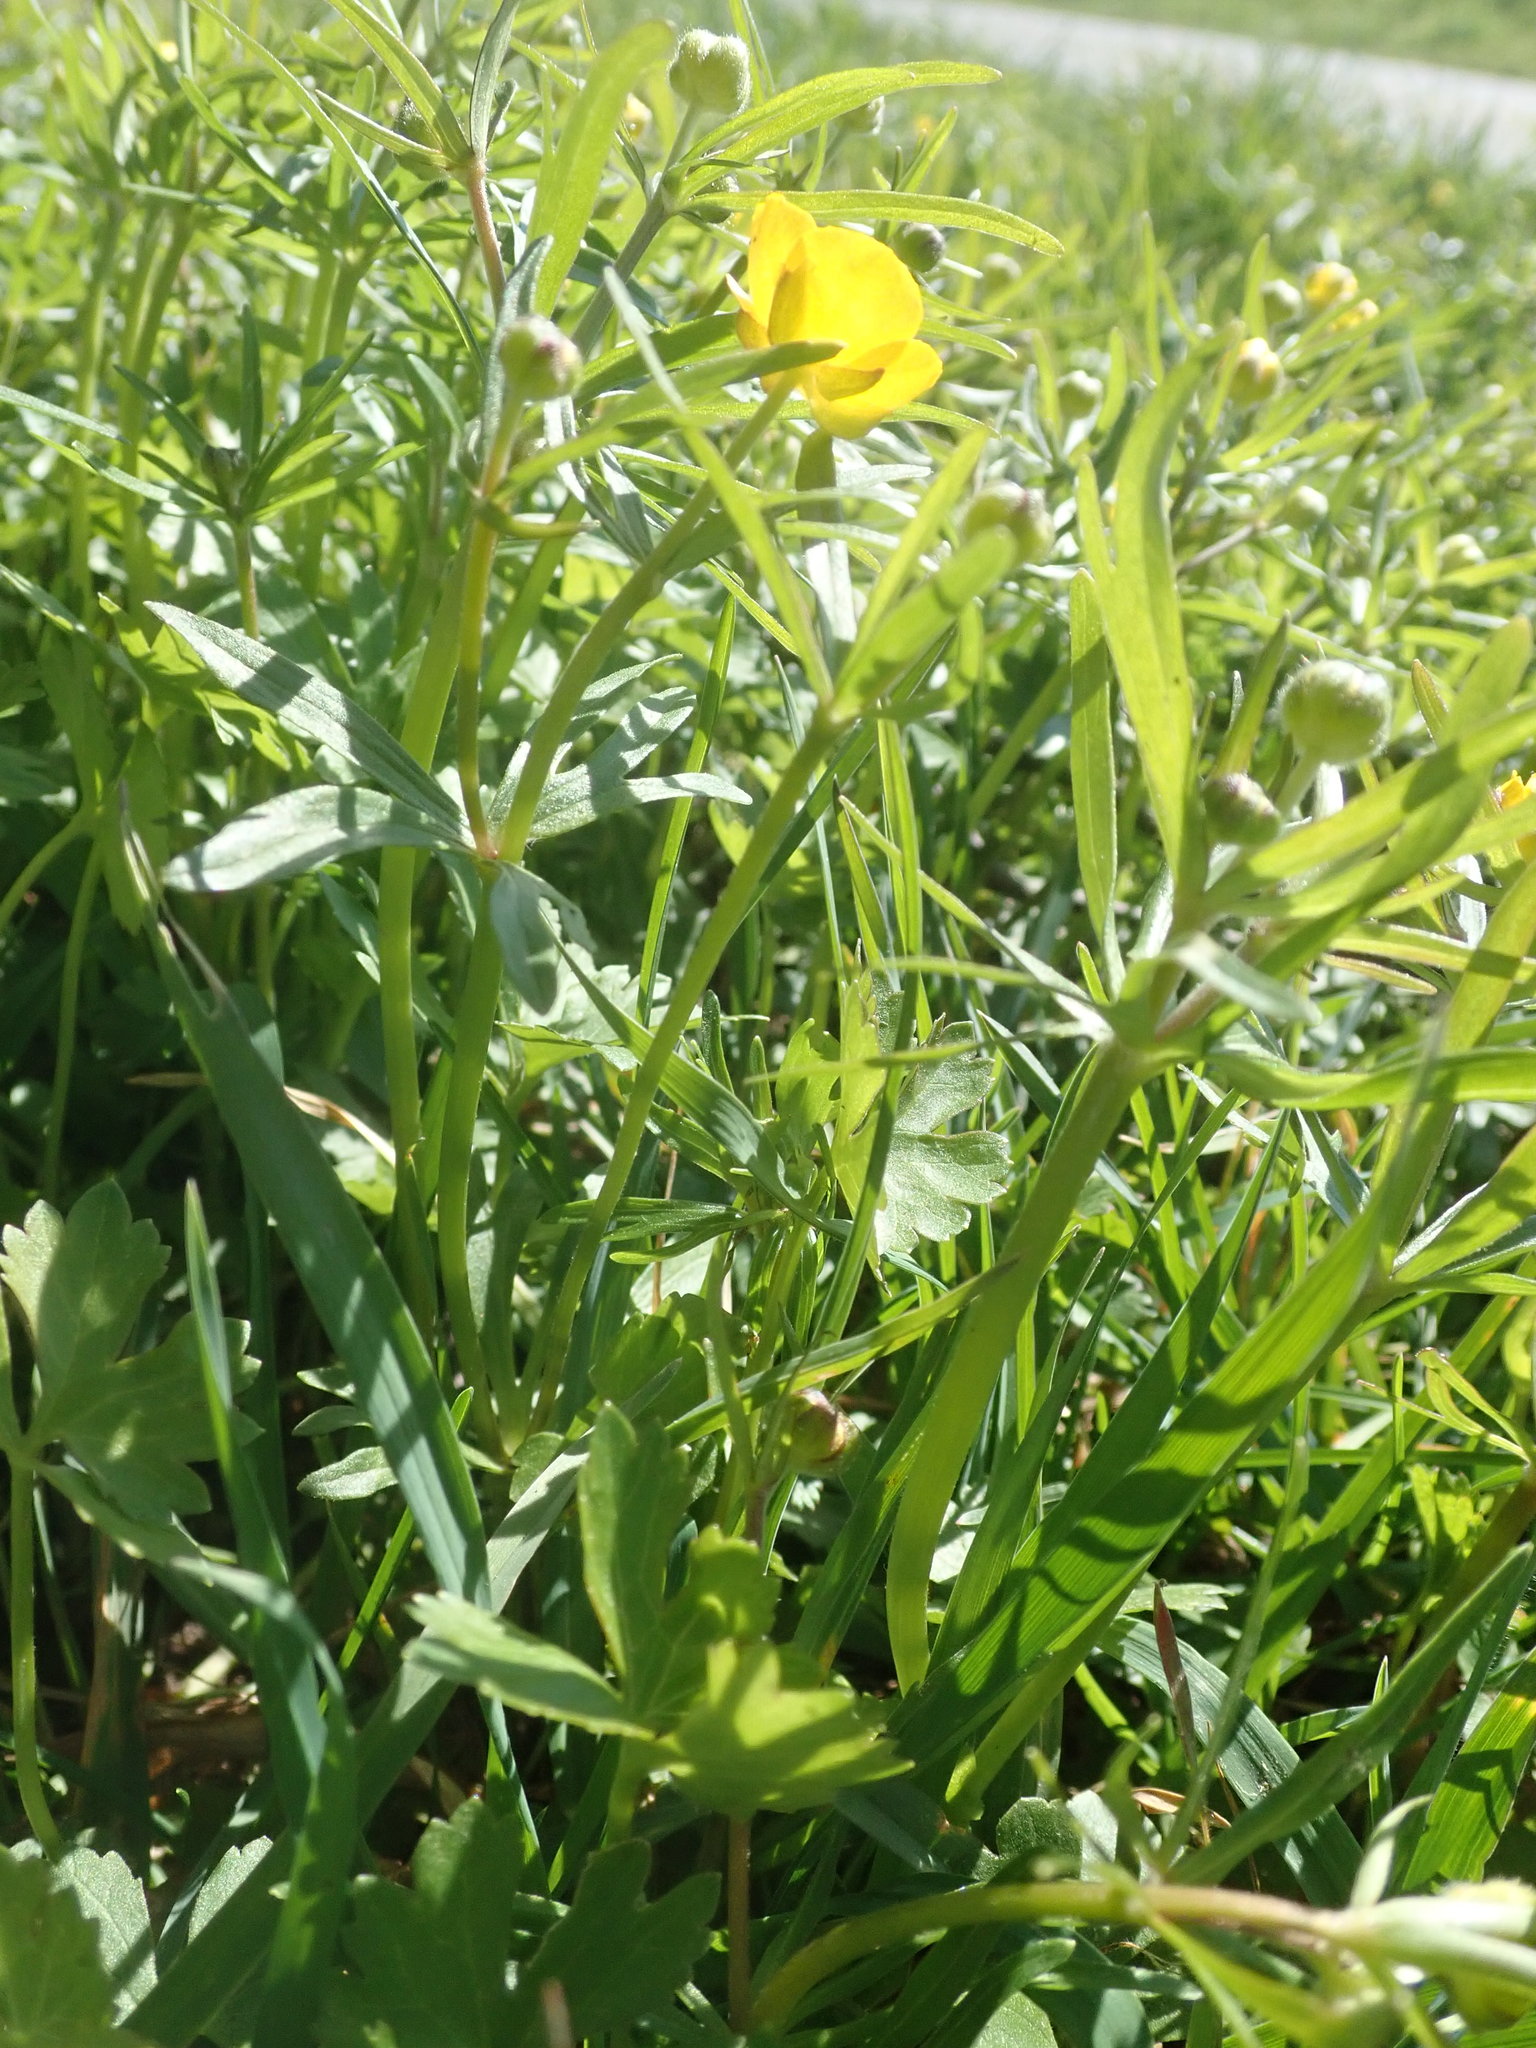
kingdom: Plantae
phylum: Tracheophyta
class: Magnoliopsida
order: Ranunculales
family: Ranunculaceae
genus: Ranunculus
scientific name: Ranunculus auricomus
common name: Goldilocks buttercup
